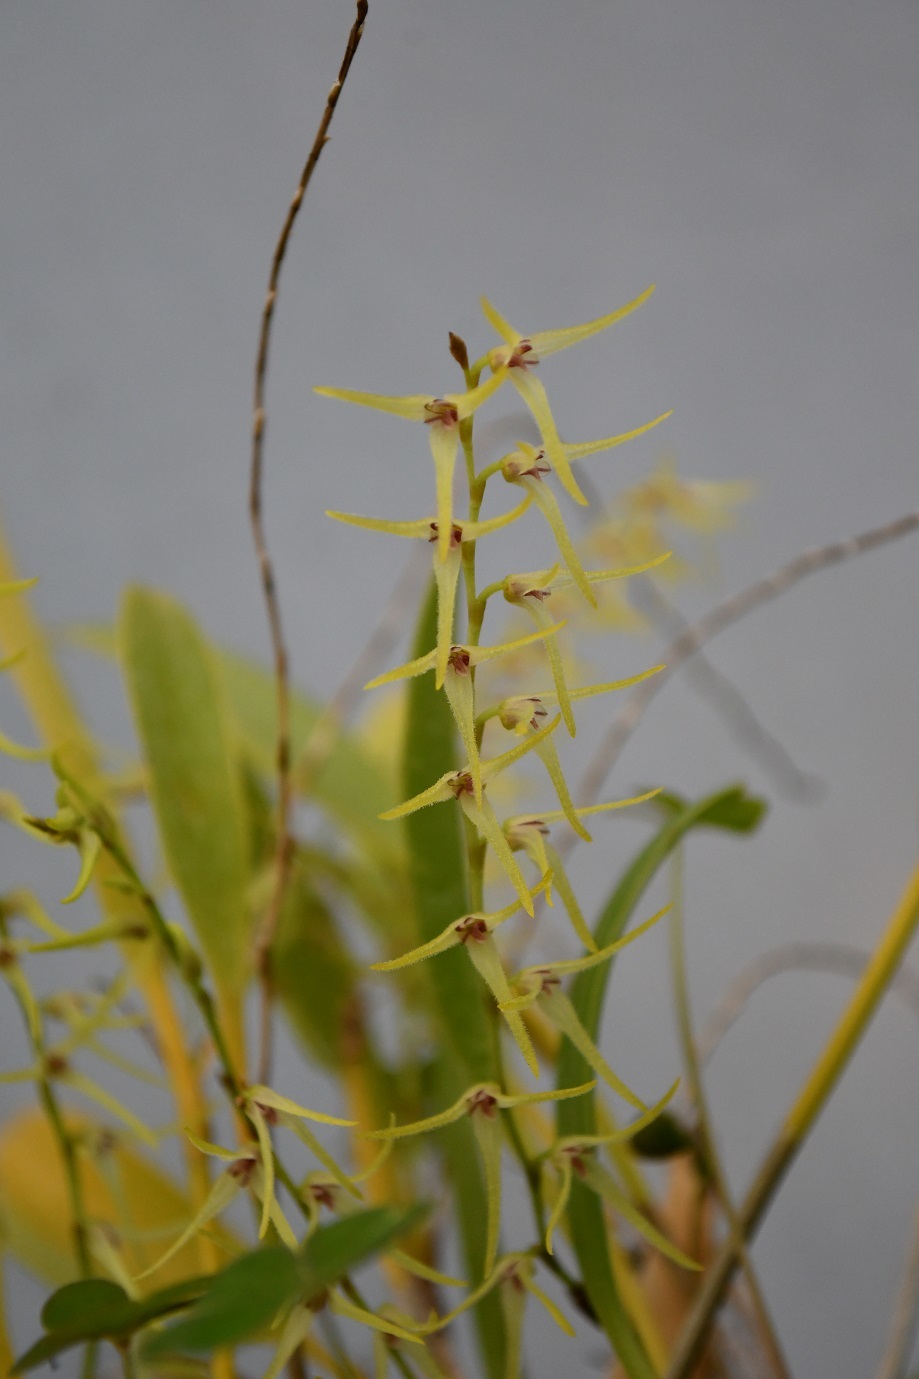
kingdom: Plantae
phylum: Tracheophyta
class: Liliopsida
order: Asparagales
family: Orchidaceae
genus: Stelis
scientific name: Stelis poasensis
